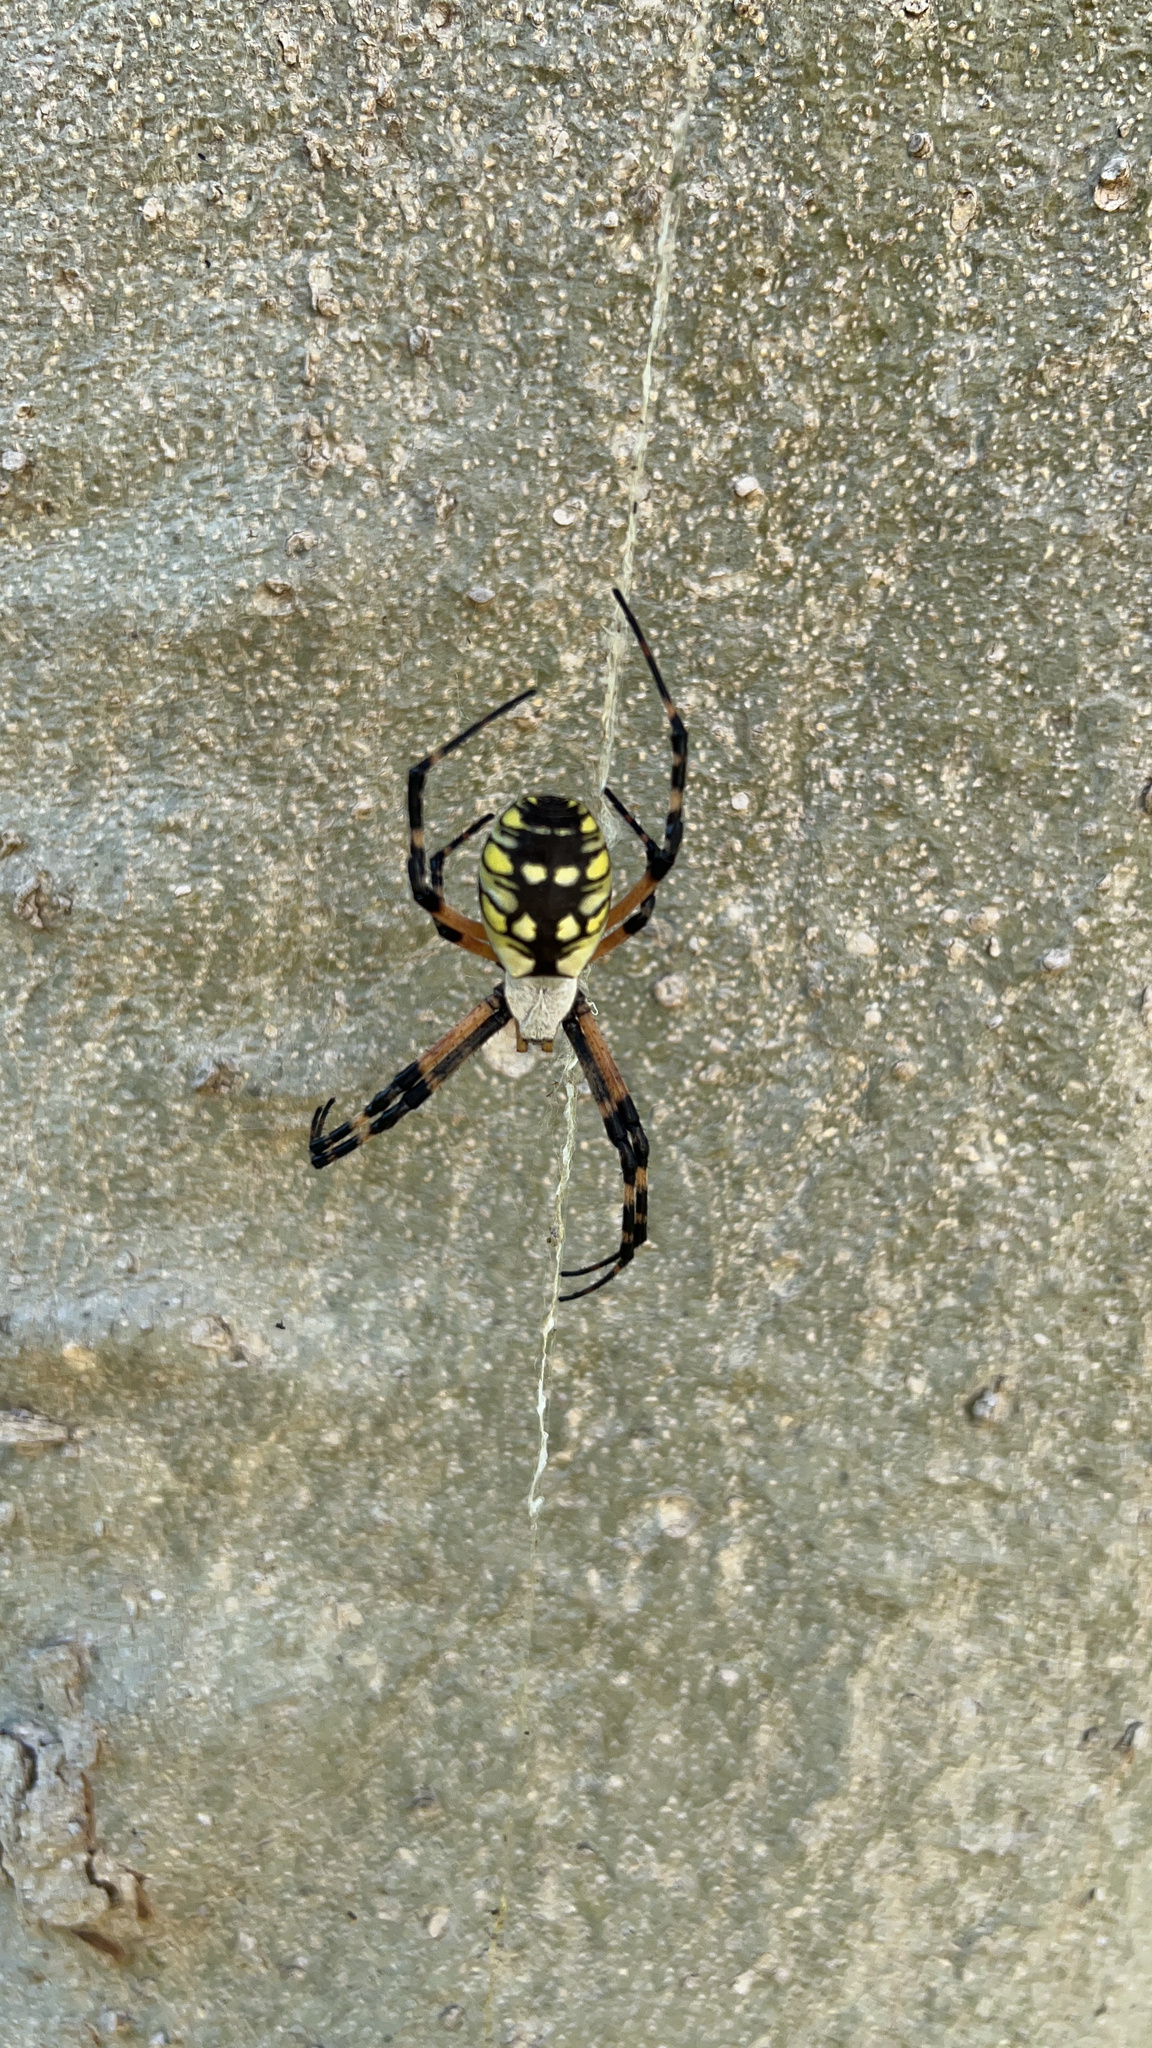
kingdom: Animalia
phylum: Arthropoda
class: Arachnida
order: Araneae
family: Araneidae
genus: Argiope
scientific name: Argiope aurantia
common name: Orb weavers
